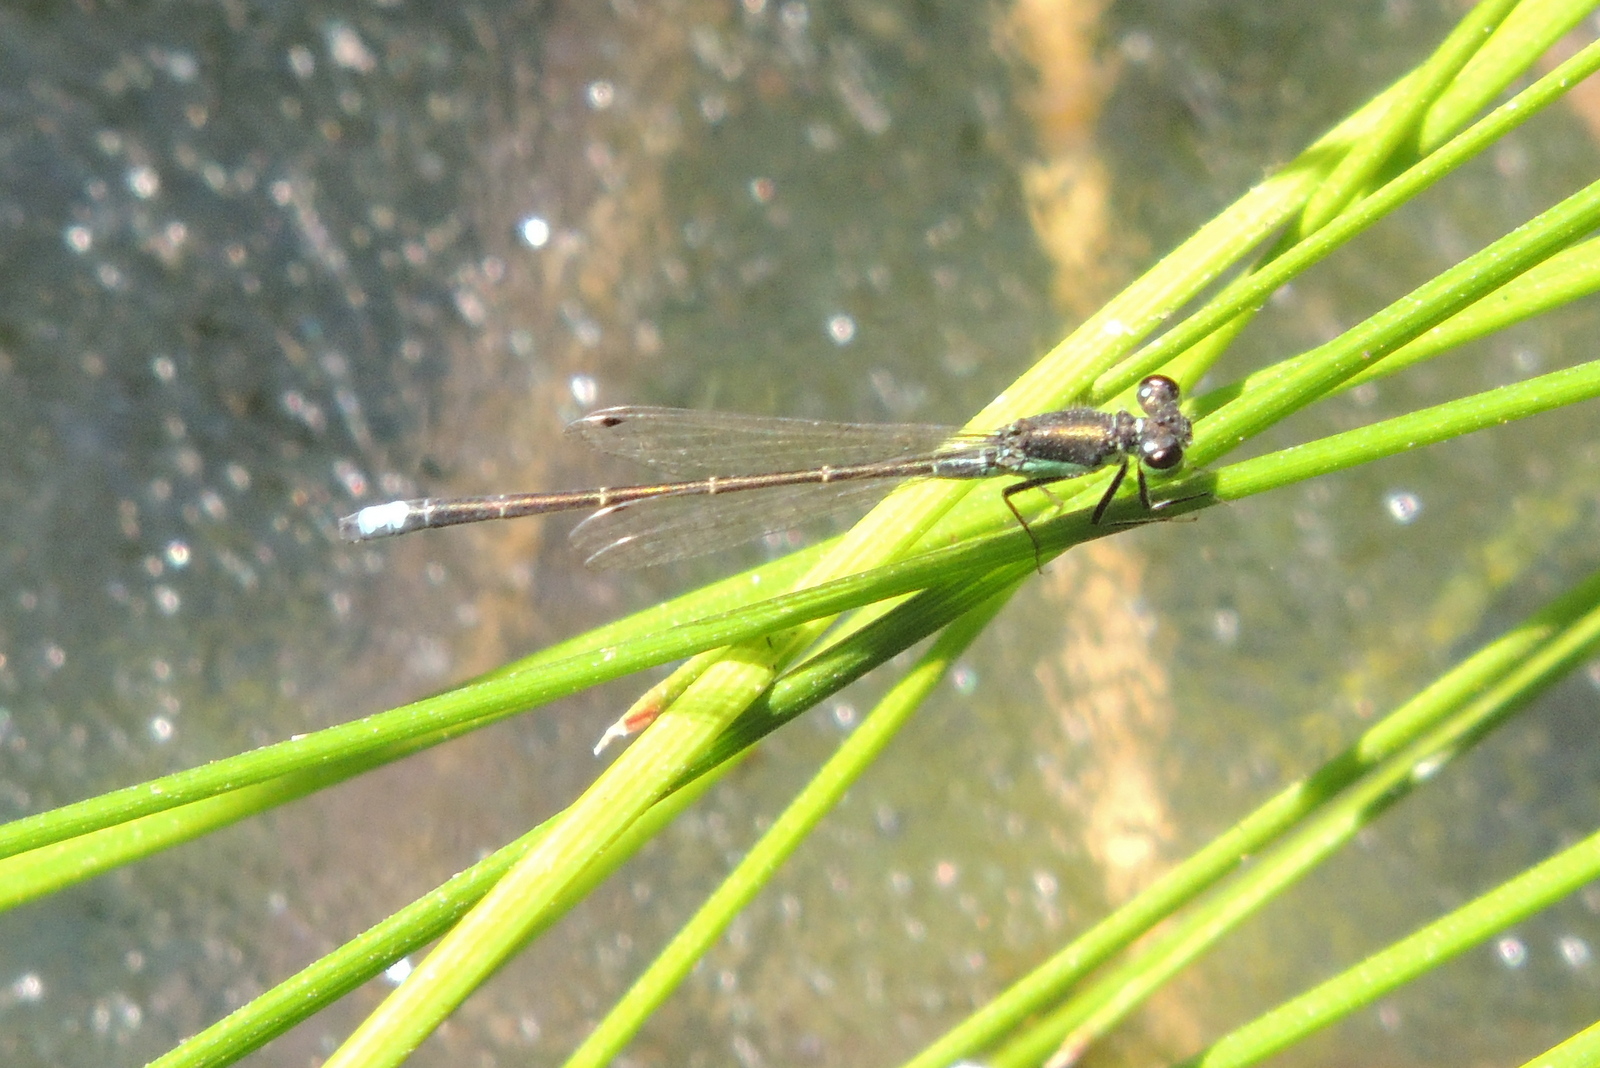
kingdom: Animalia
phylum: Arthropoda
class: Insecta
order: Odonata
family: Coenagrionidae
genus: Ischnura
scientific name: Ischnura denticollis
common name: Black-fronted forktail
